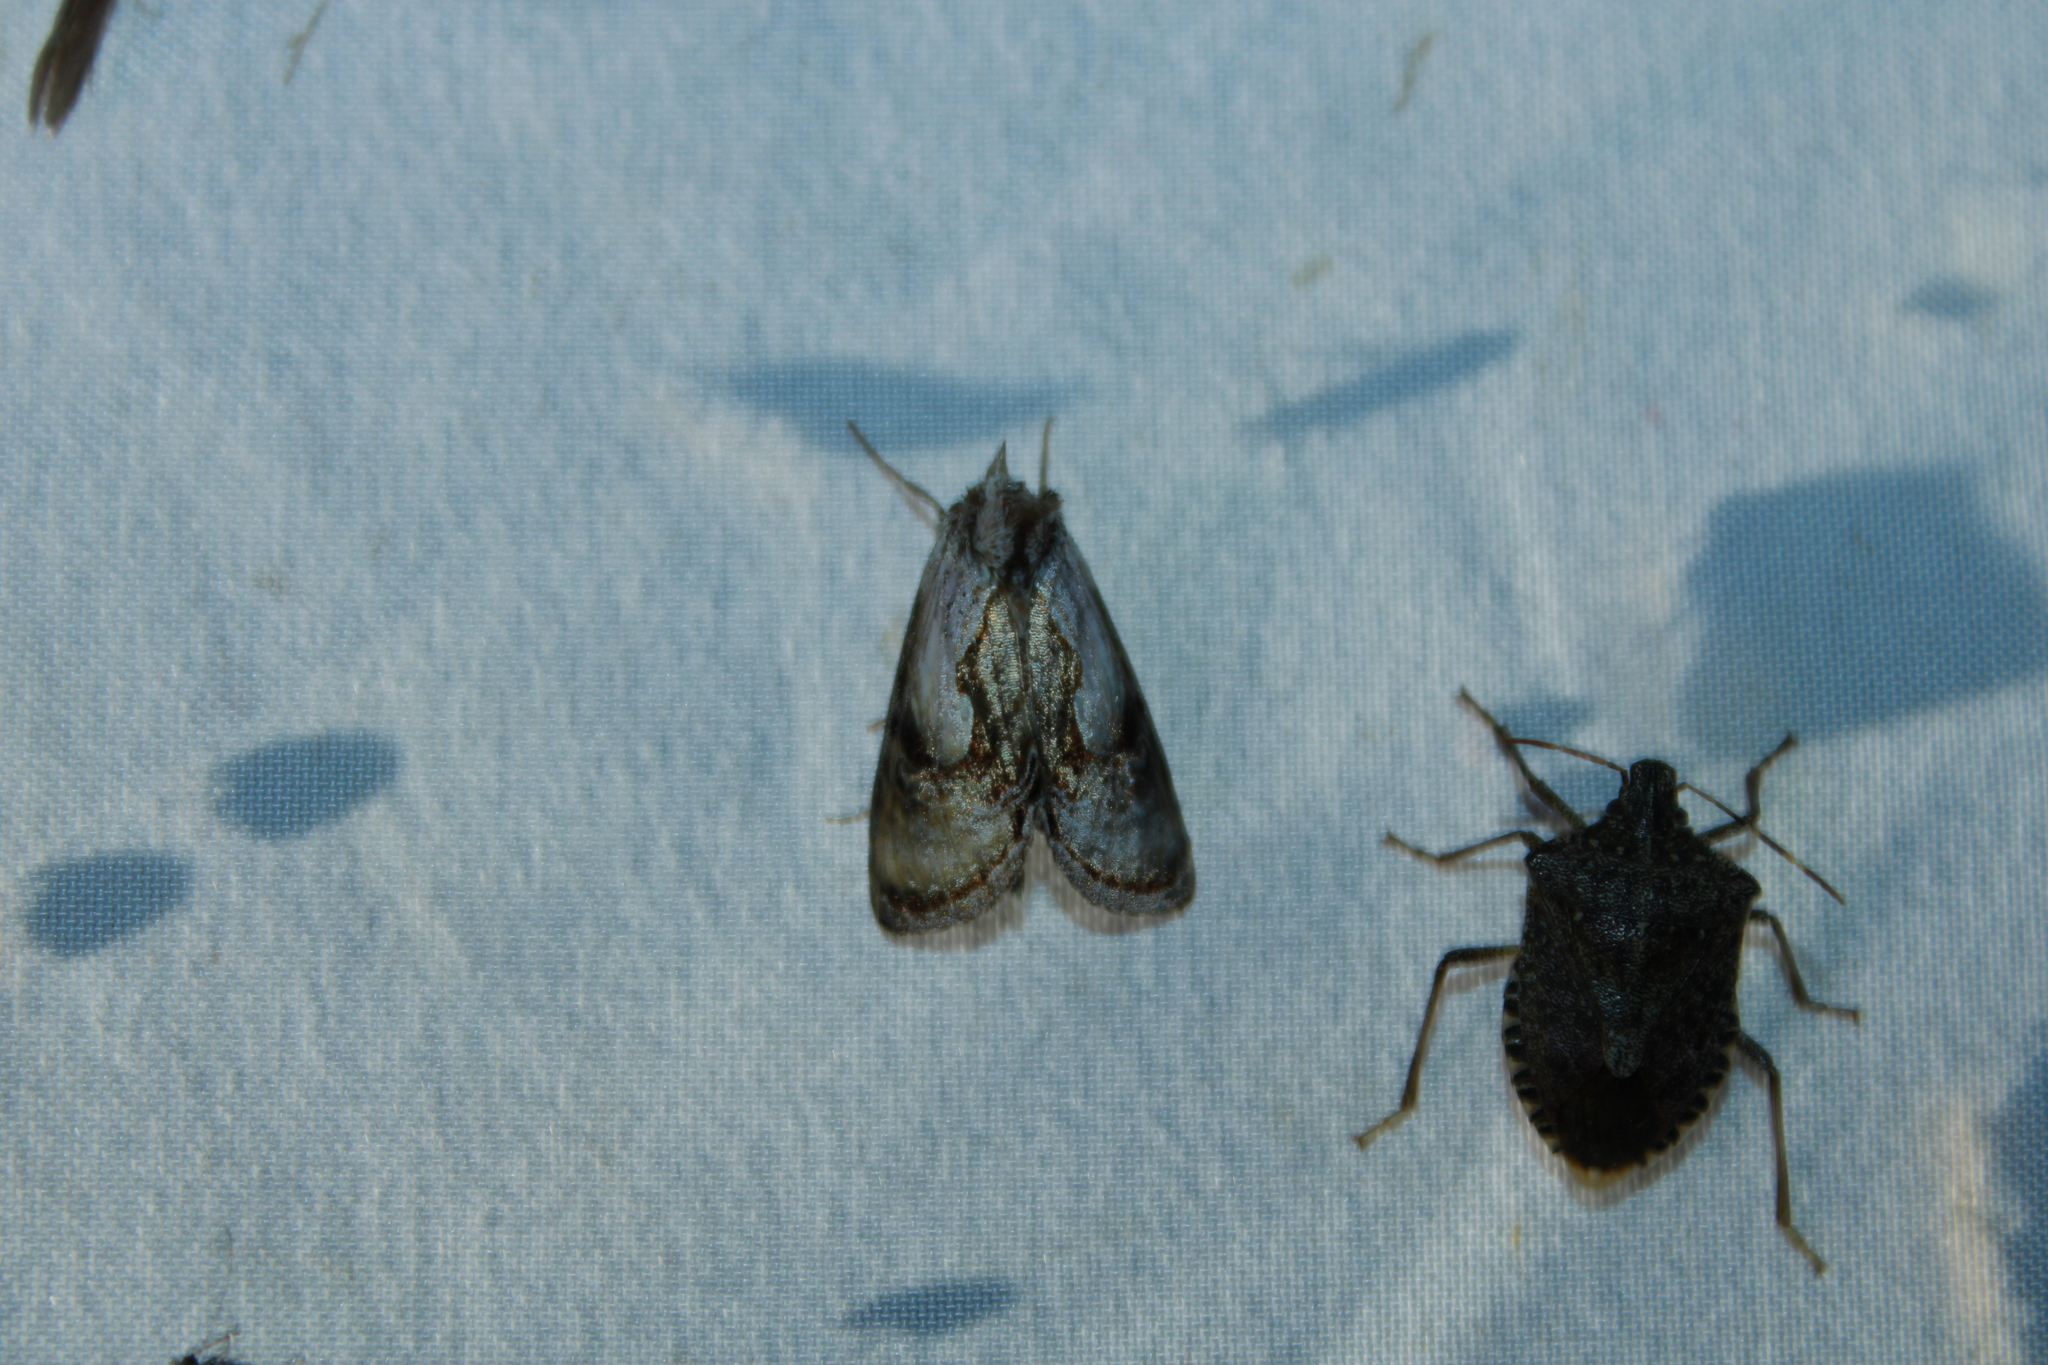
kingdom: Animalia
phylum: Arthropoda
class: Insecta
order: Lepidoptera
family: Noctuidae
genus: Chrysanympha
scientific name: Chrysanympha formosa
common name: Formosa looper moth
